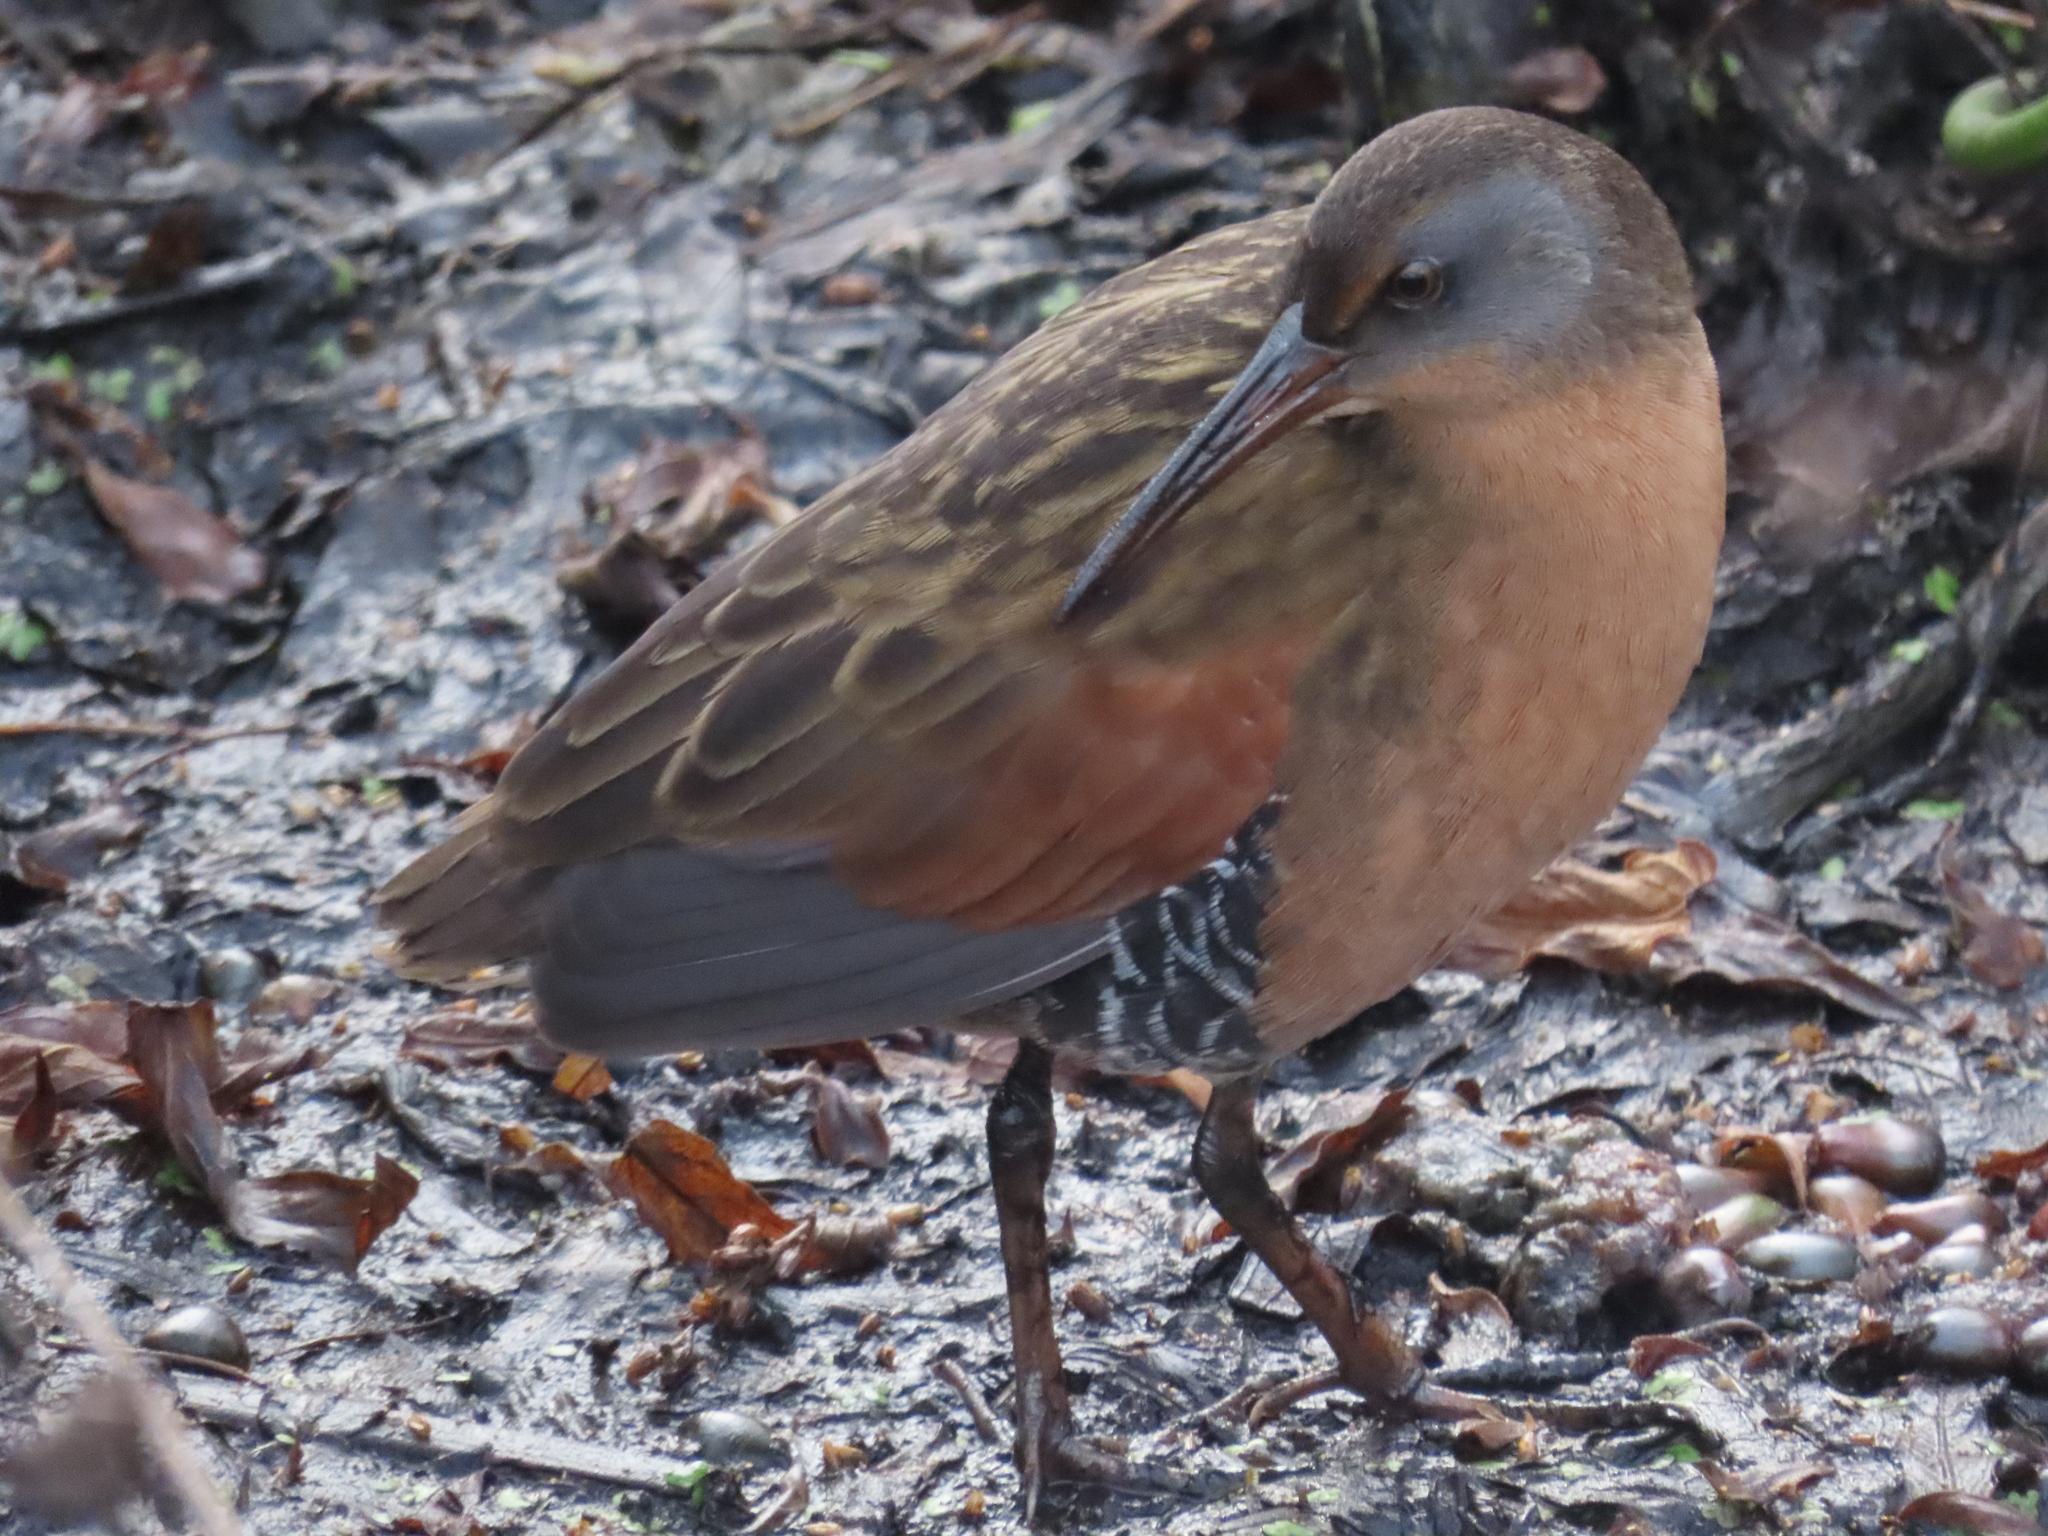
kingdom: Animalia
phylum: Chordata
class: Aves
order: Gruiformes
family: Rallidae
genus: Rallus
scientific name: Rallus limicola
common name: Virginia rail
